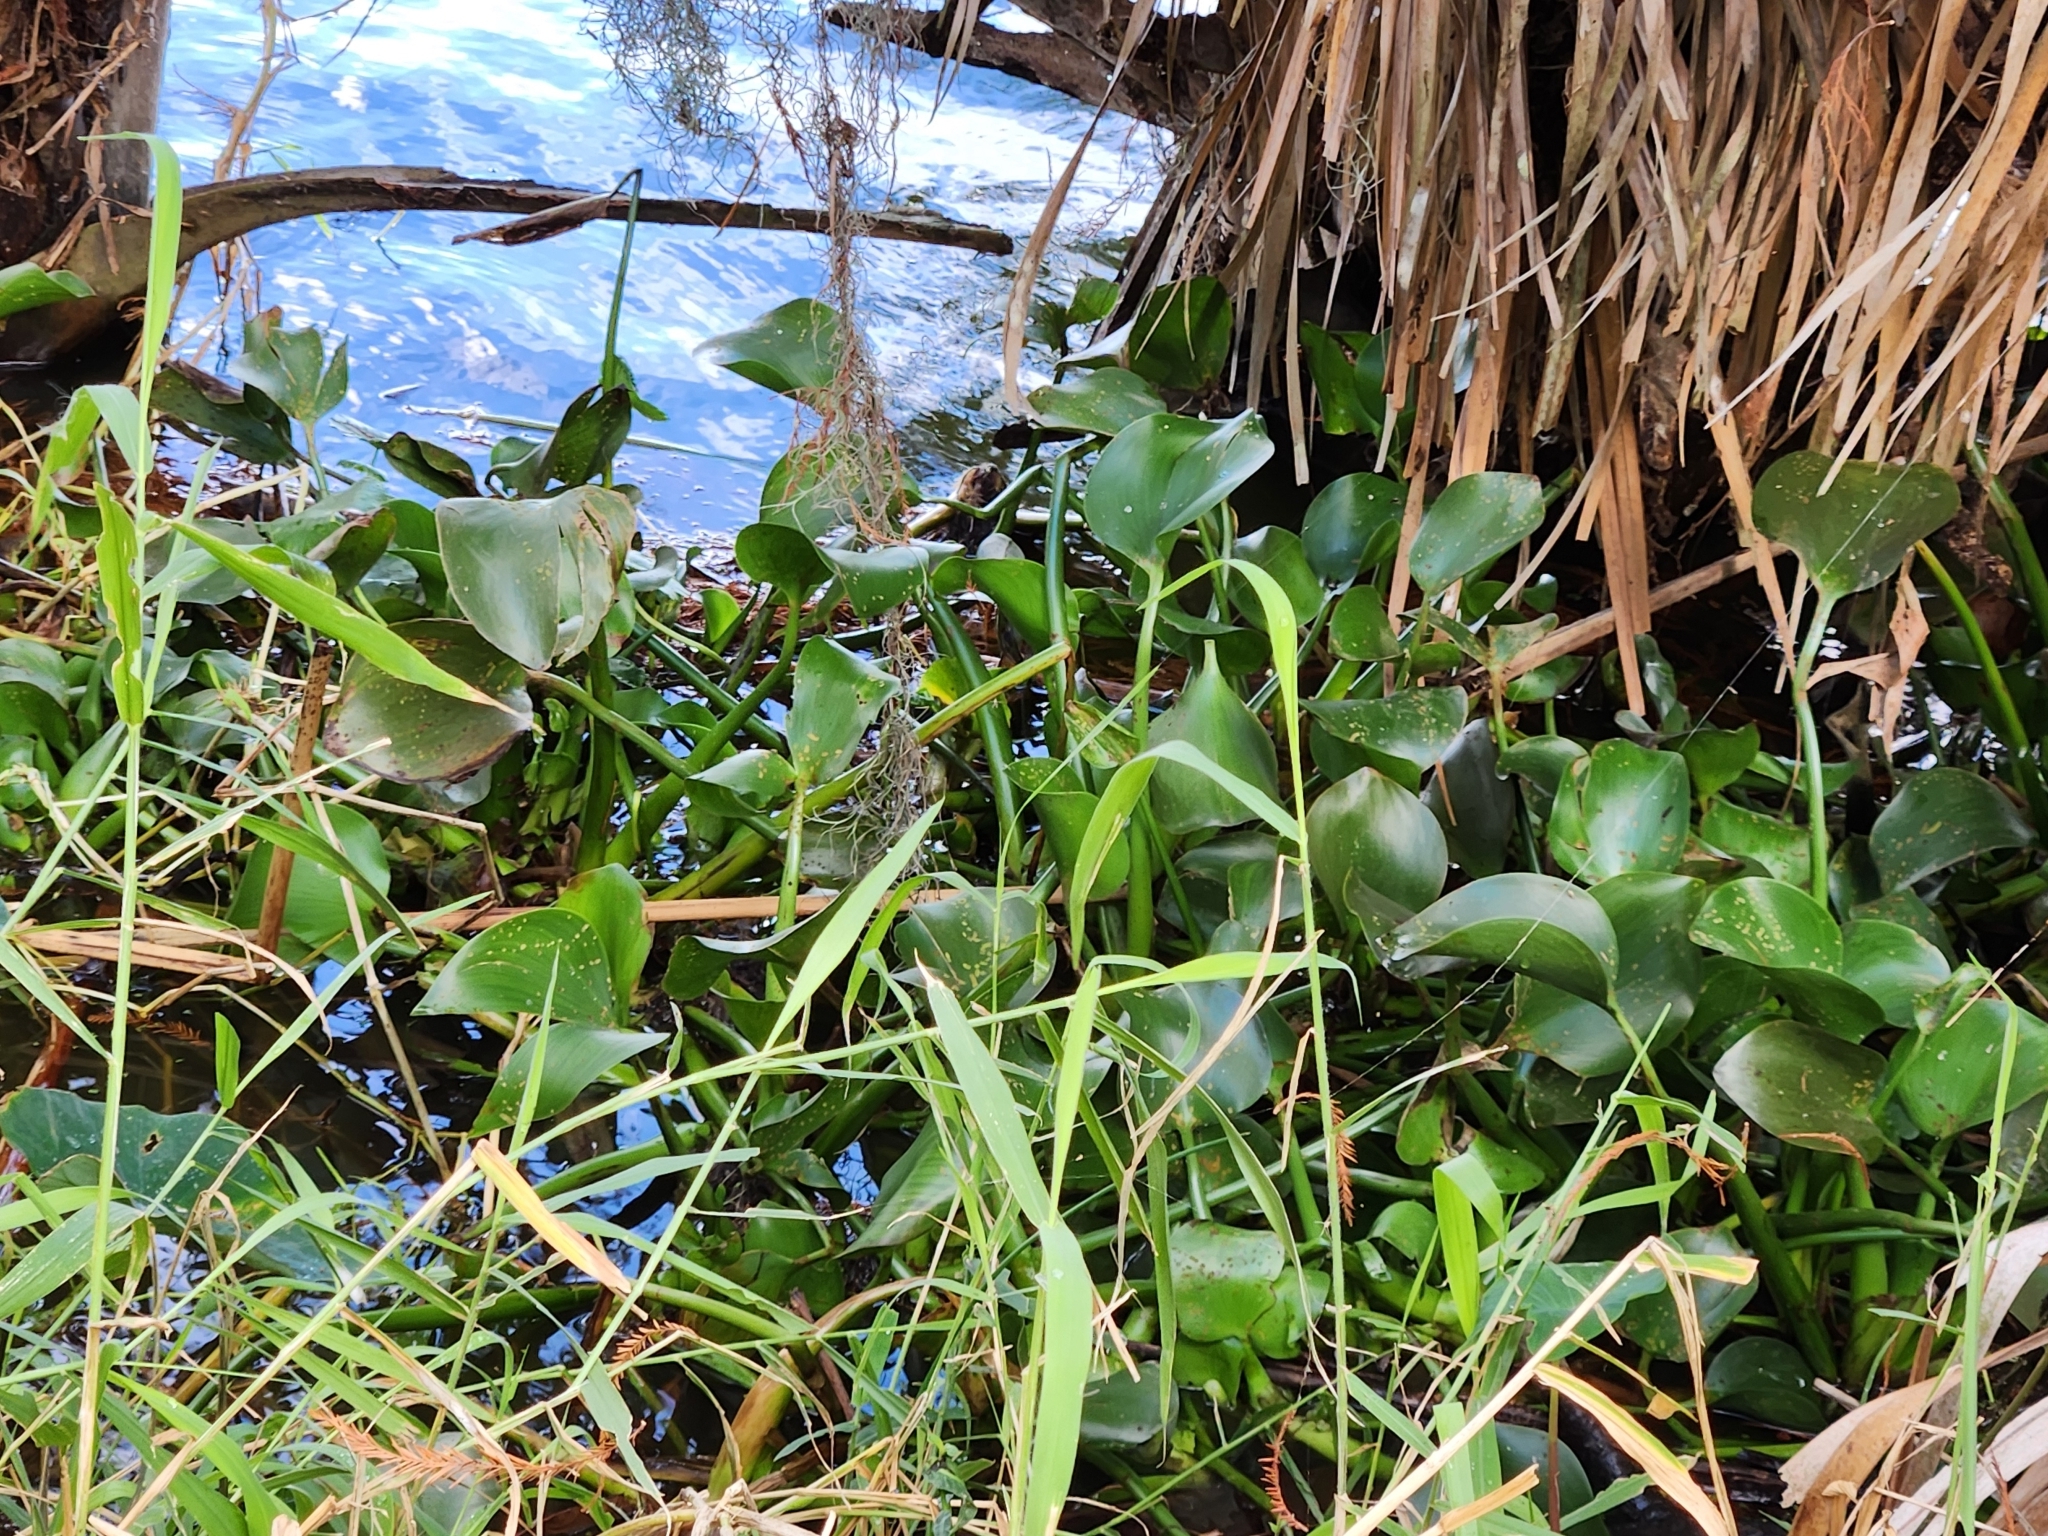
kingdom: Plantae
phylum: Tracheophyta
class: Liliopsida
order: Commelinales
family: Pontederiaceae
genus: Pontederia
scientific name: Pontederia crassipes
